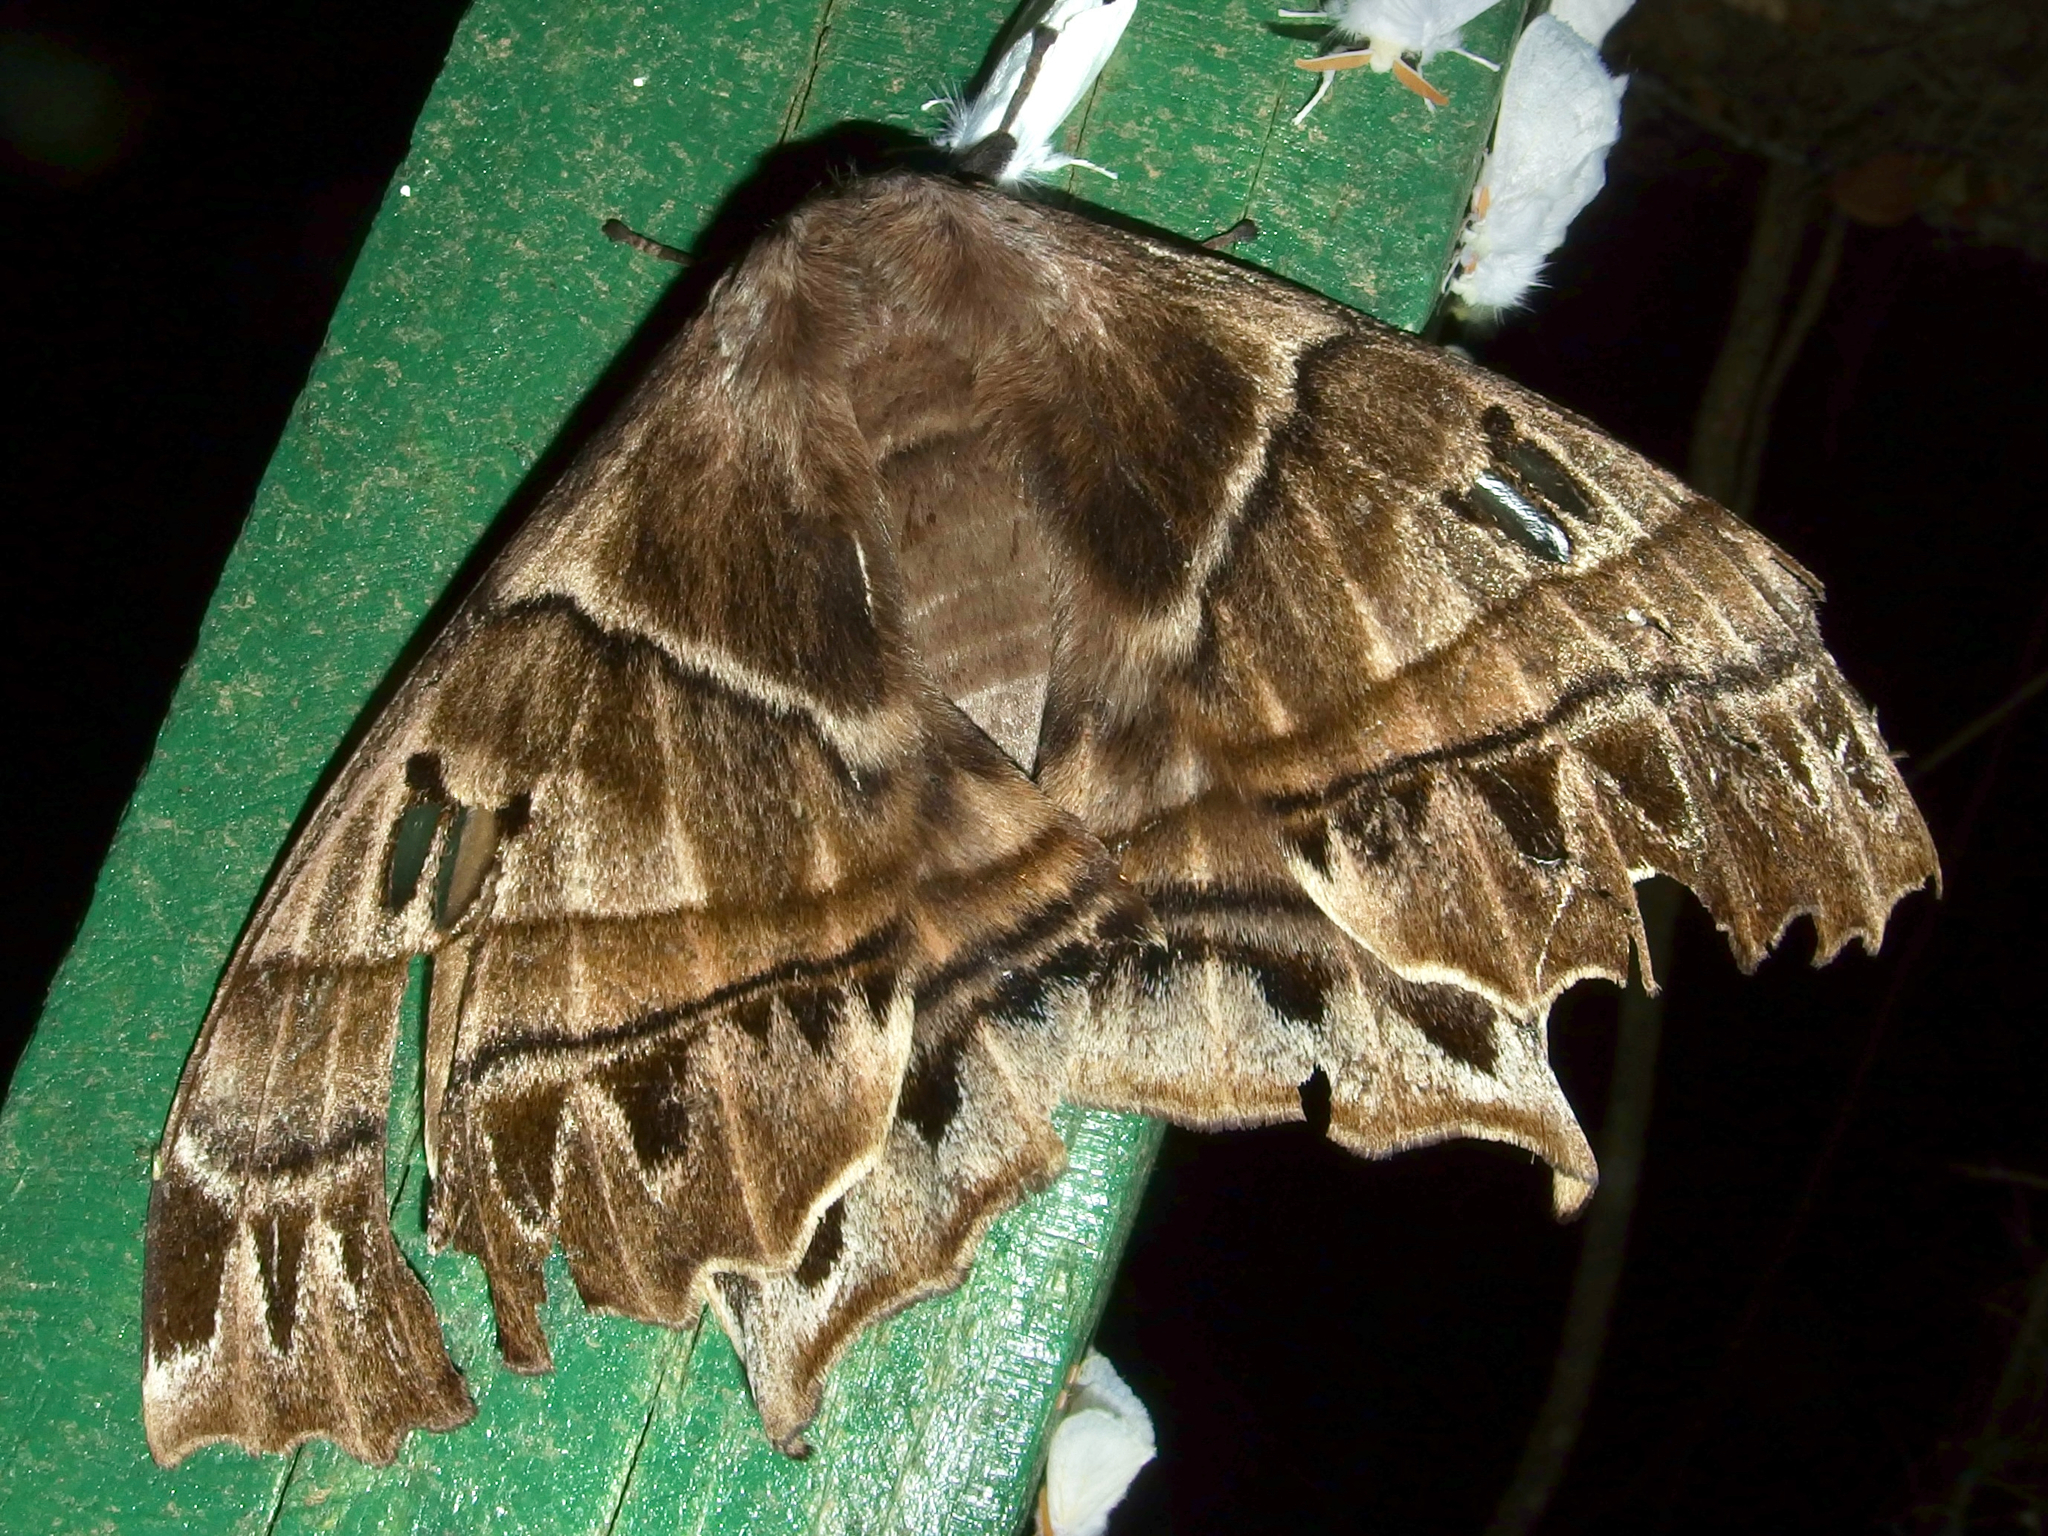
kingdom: Animalia
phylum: Arthropoda
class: Insecta
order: Lepidoptera
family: Saturniidae
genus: Titaea
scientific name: Titaea tamerlan
